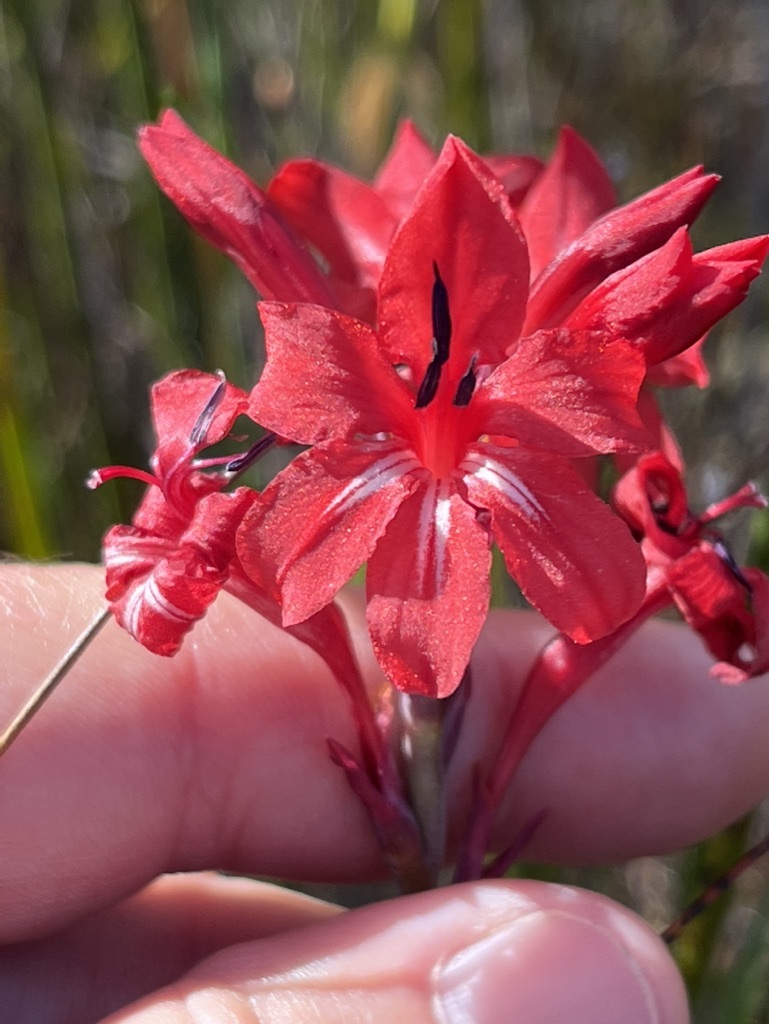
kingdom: Plantae
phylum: Tracheophyta
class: Liliopsida
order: Asparagales
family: Iridaceae
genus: Tritoniopsis
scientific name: Tritoniopsis pulchra
